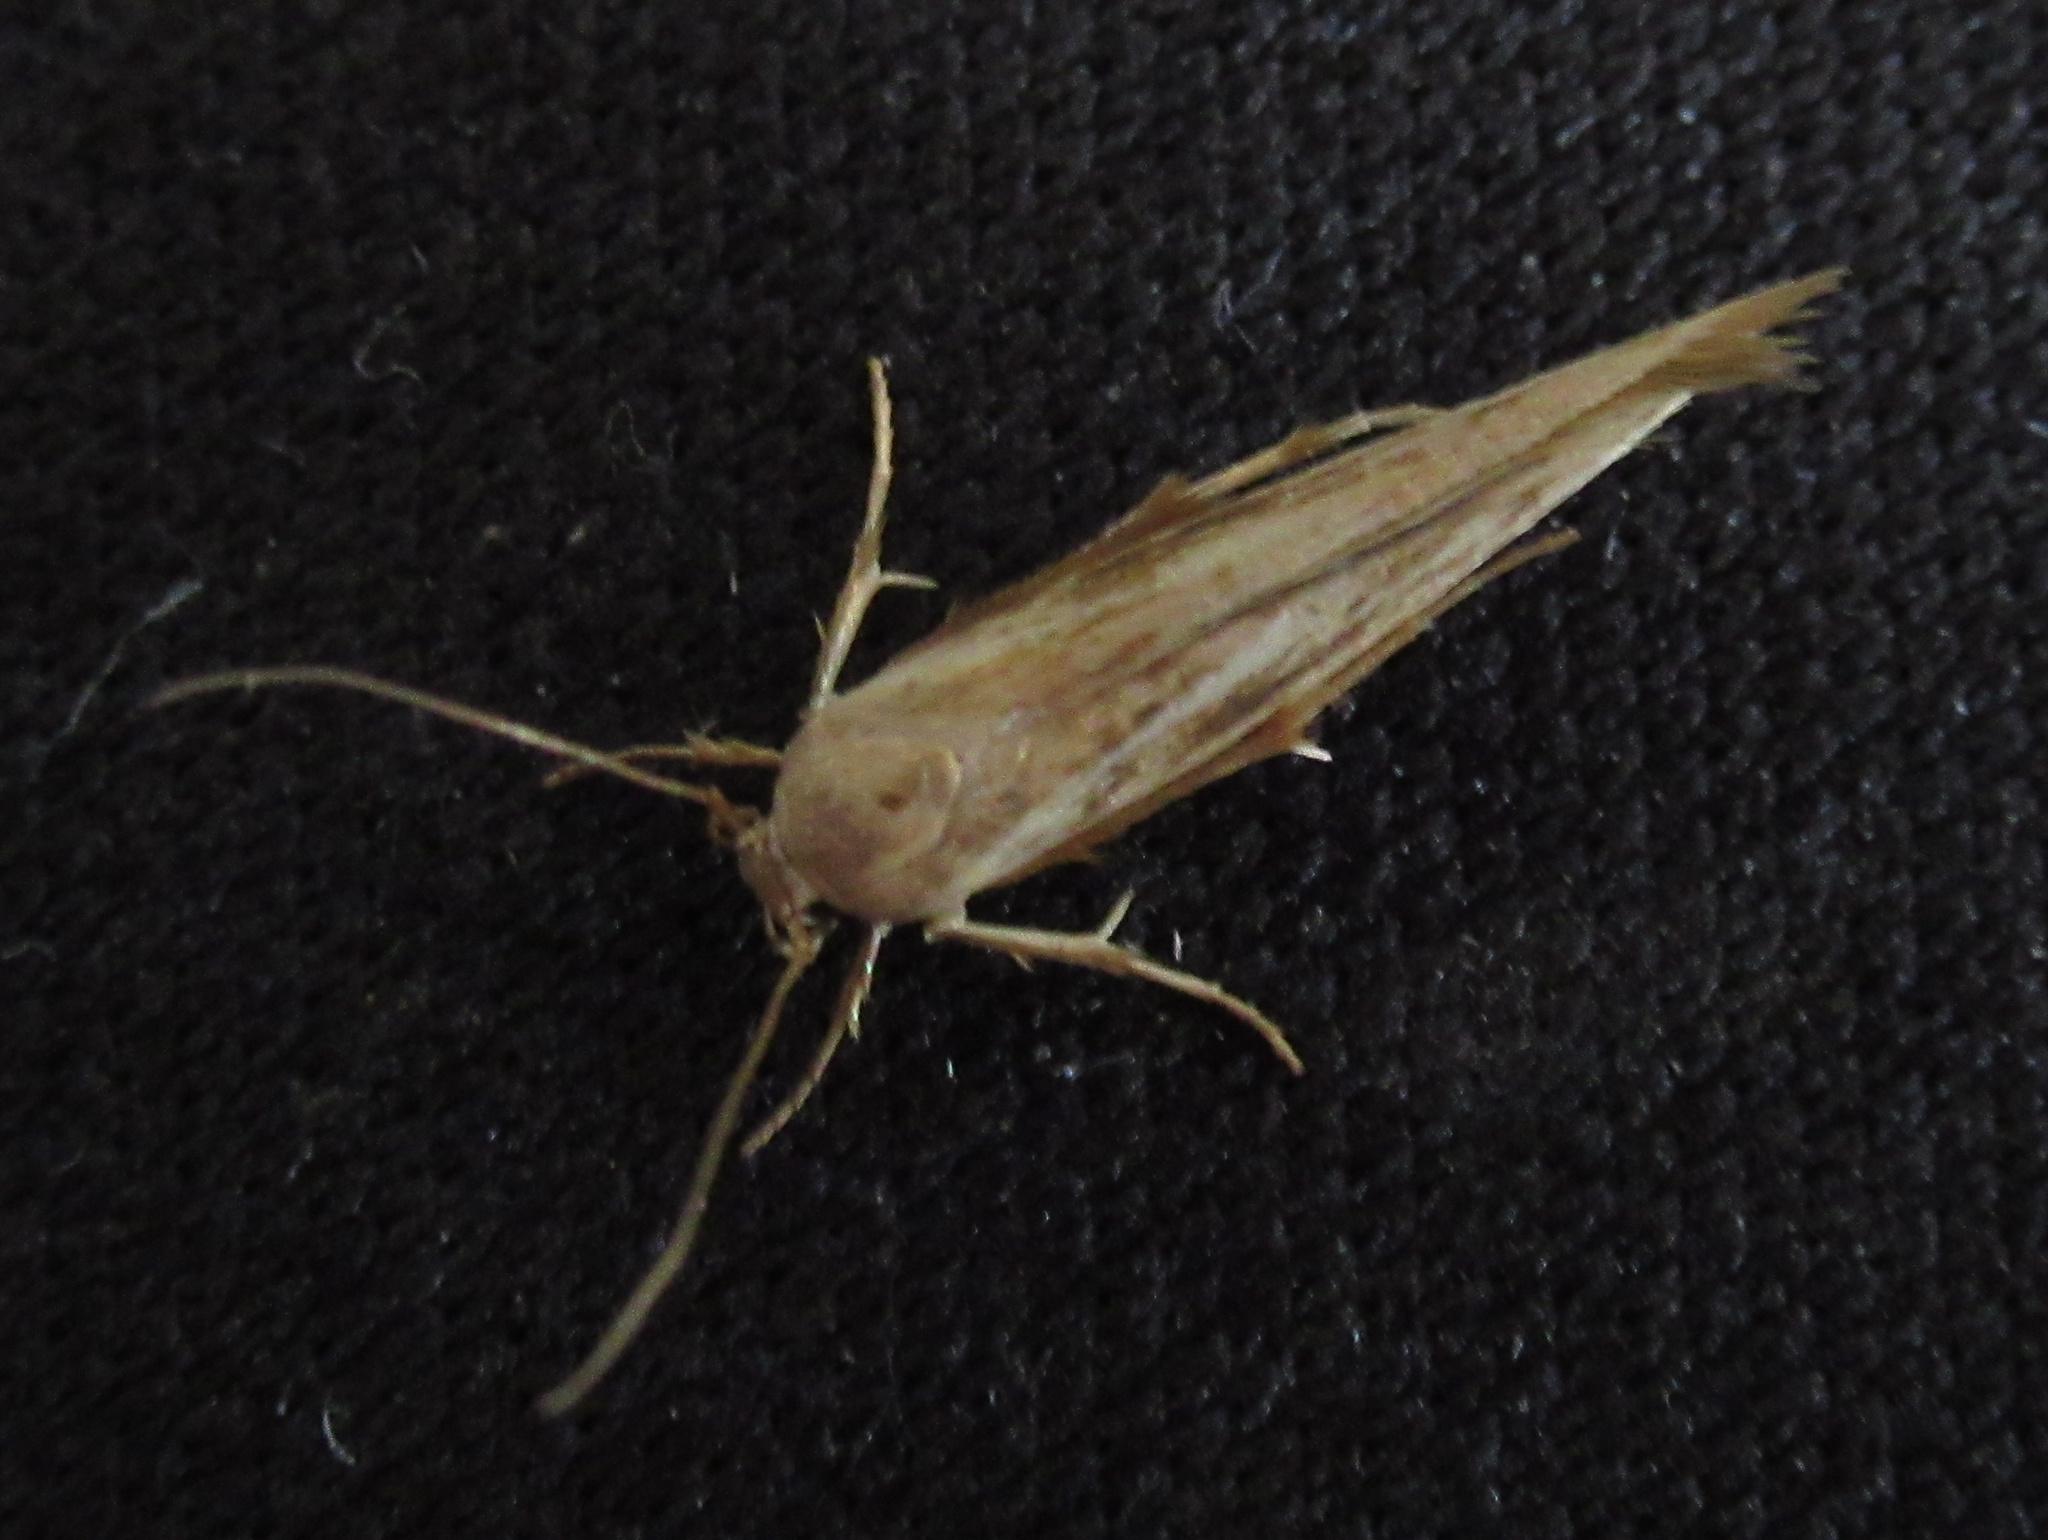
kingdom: Animalia
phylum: Arthropoda
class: Insecta
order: Lepidoptera
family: Stathmopodidae
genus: Stathmopoda
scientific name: Stathmopoda aposema
